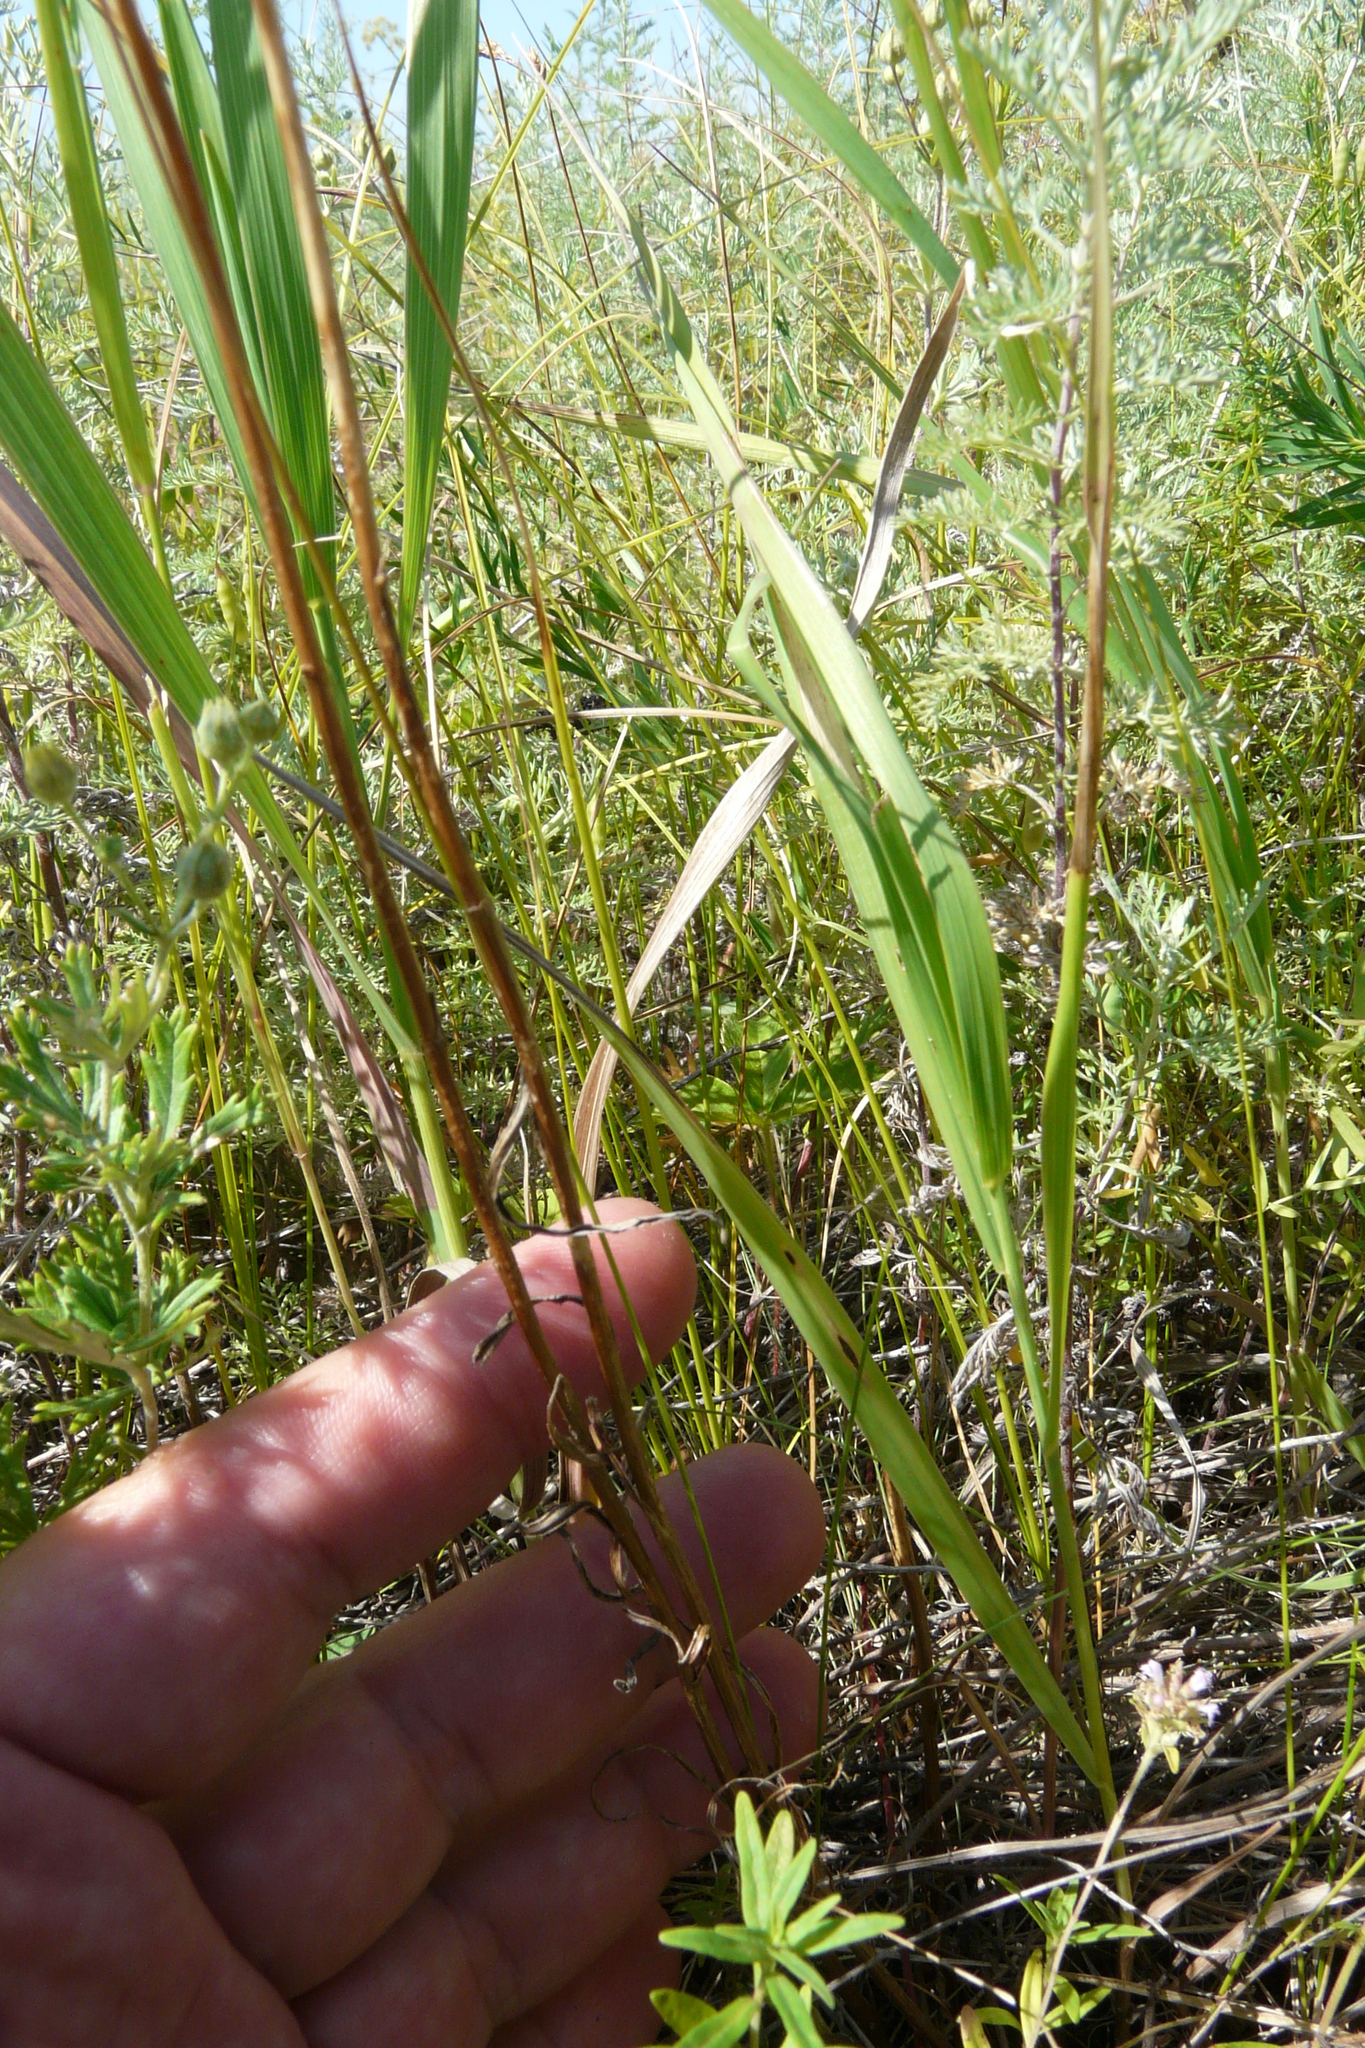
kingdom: Plantae
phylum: Tracheophyta
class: Magnoliopsida
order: Asterales
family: Campanulaceae
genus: Campanula
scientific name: Campanula stevenii
